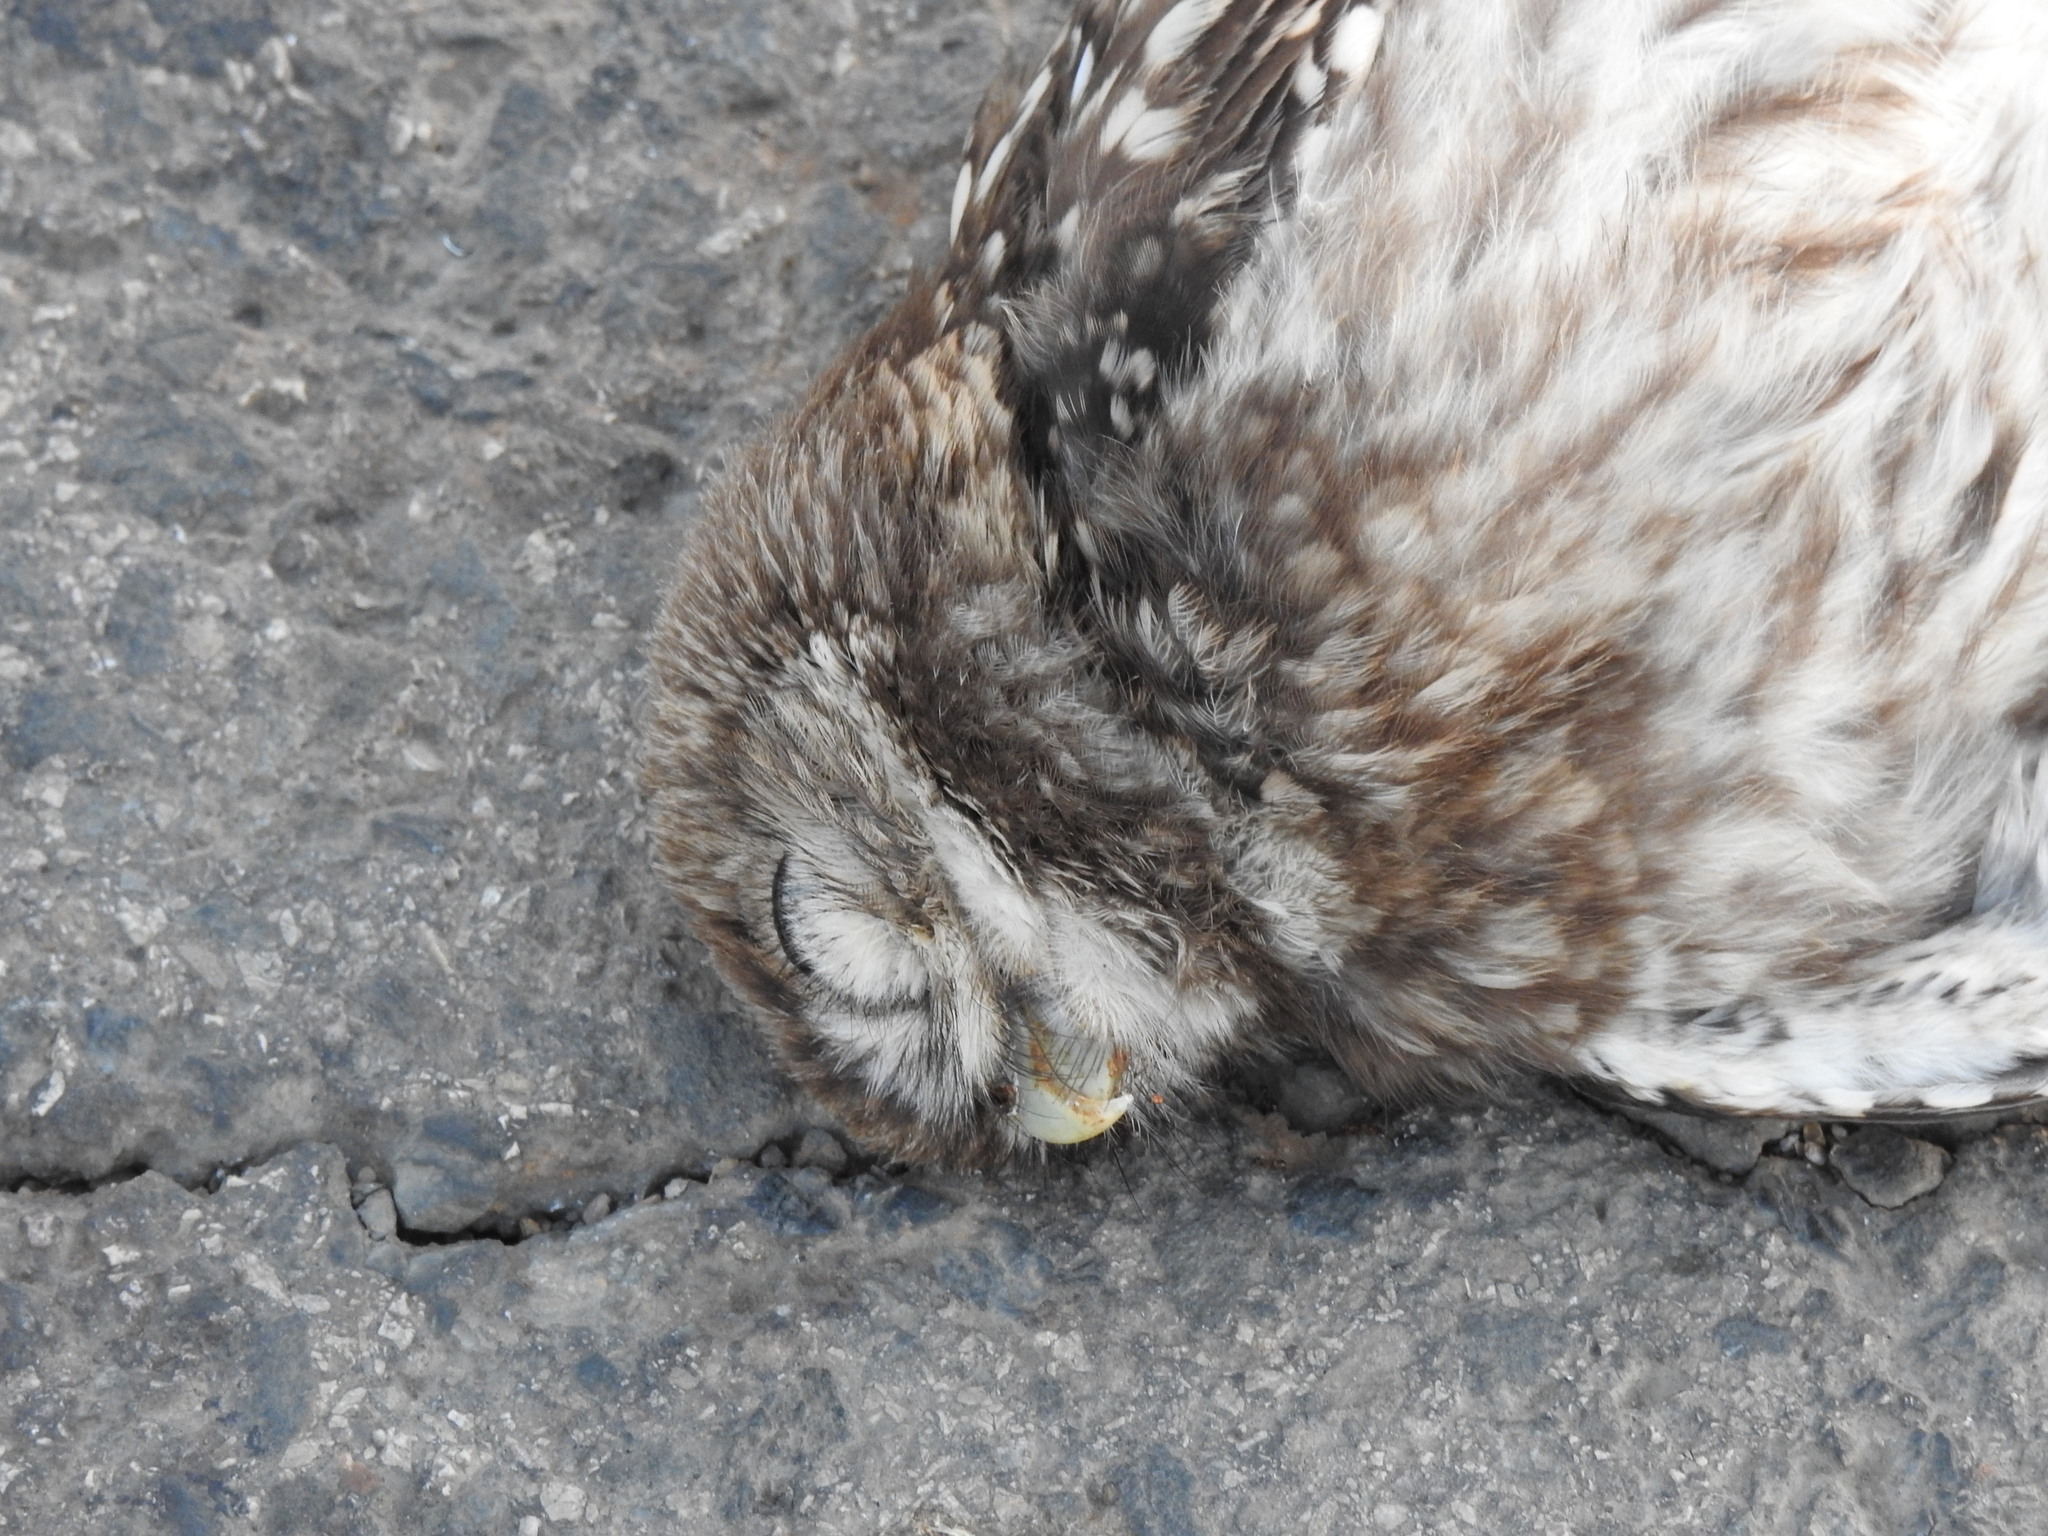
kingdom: Animalia
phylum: Chordata
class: Aves
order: Strigiformes
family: Strigidae
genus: Athene
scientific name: Athene noctua
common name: Little owl
